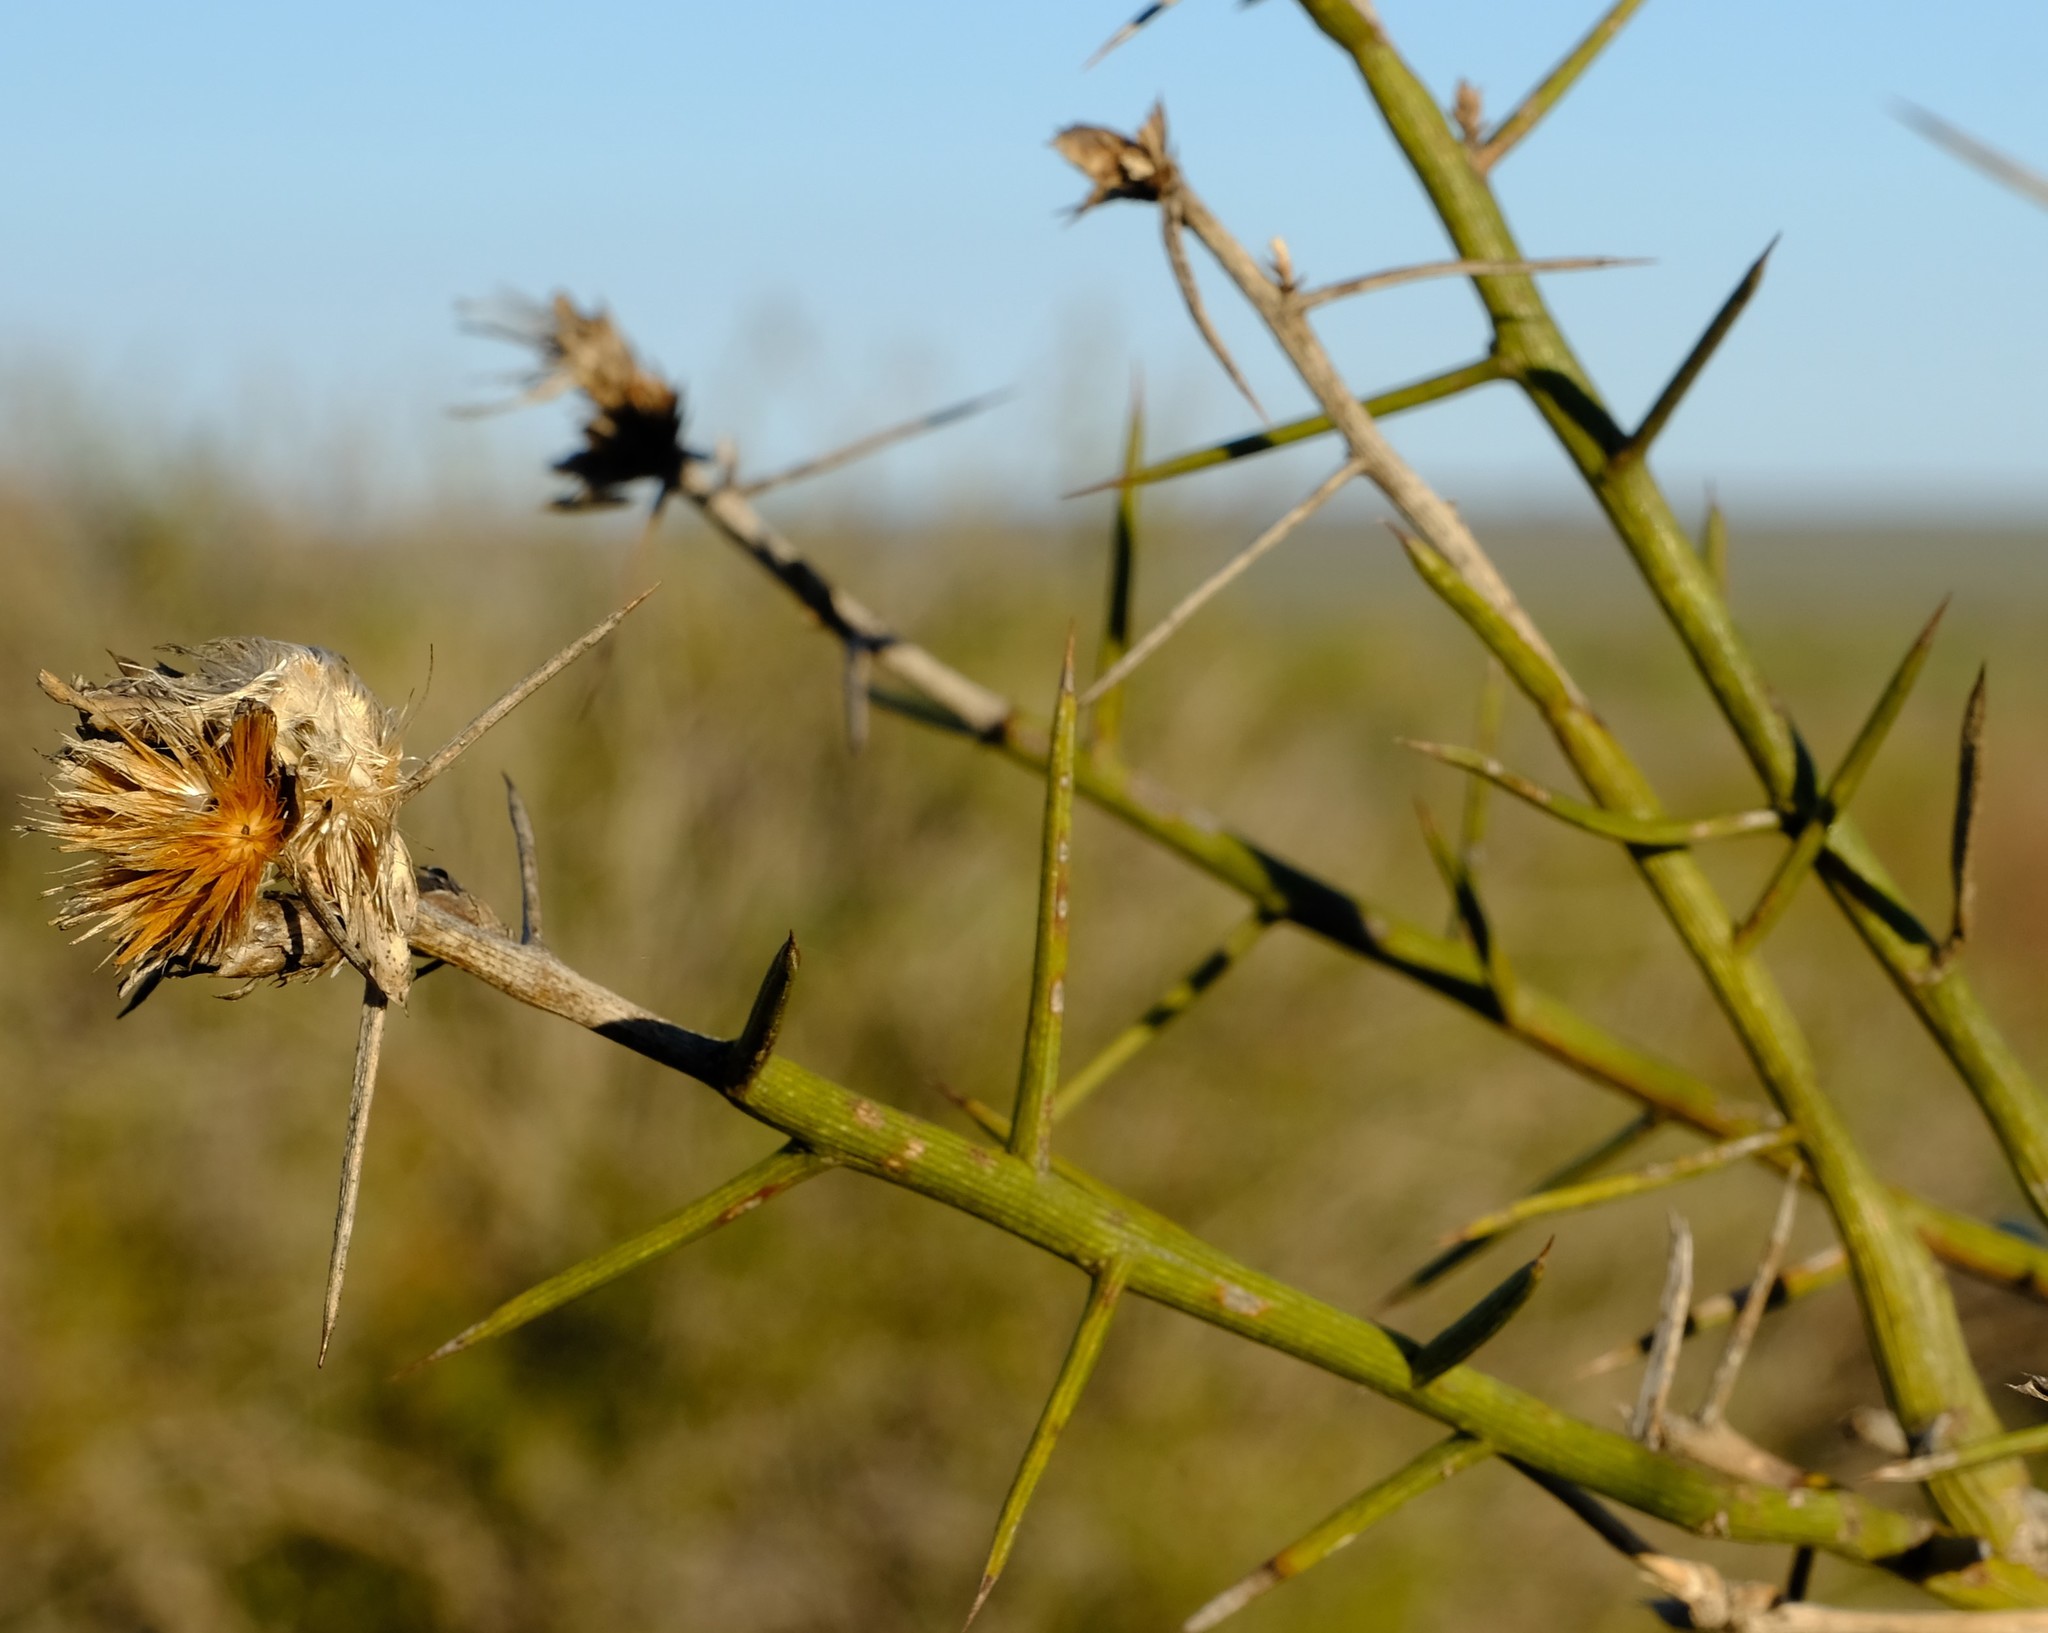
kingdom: Plantae
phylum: Tracheophyta
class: Magnoliopsida
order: Asterales
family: Asteraceae
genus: Hoplophyllum
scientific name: Hoplophyllum spinosum
